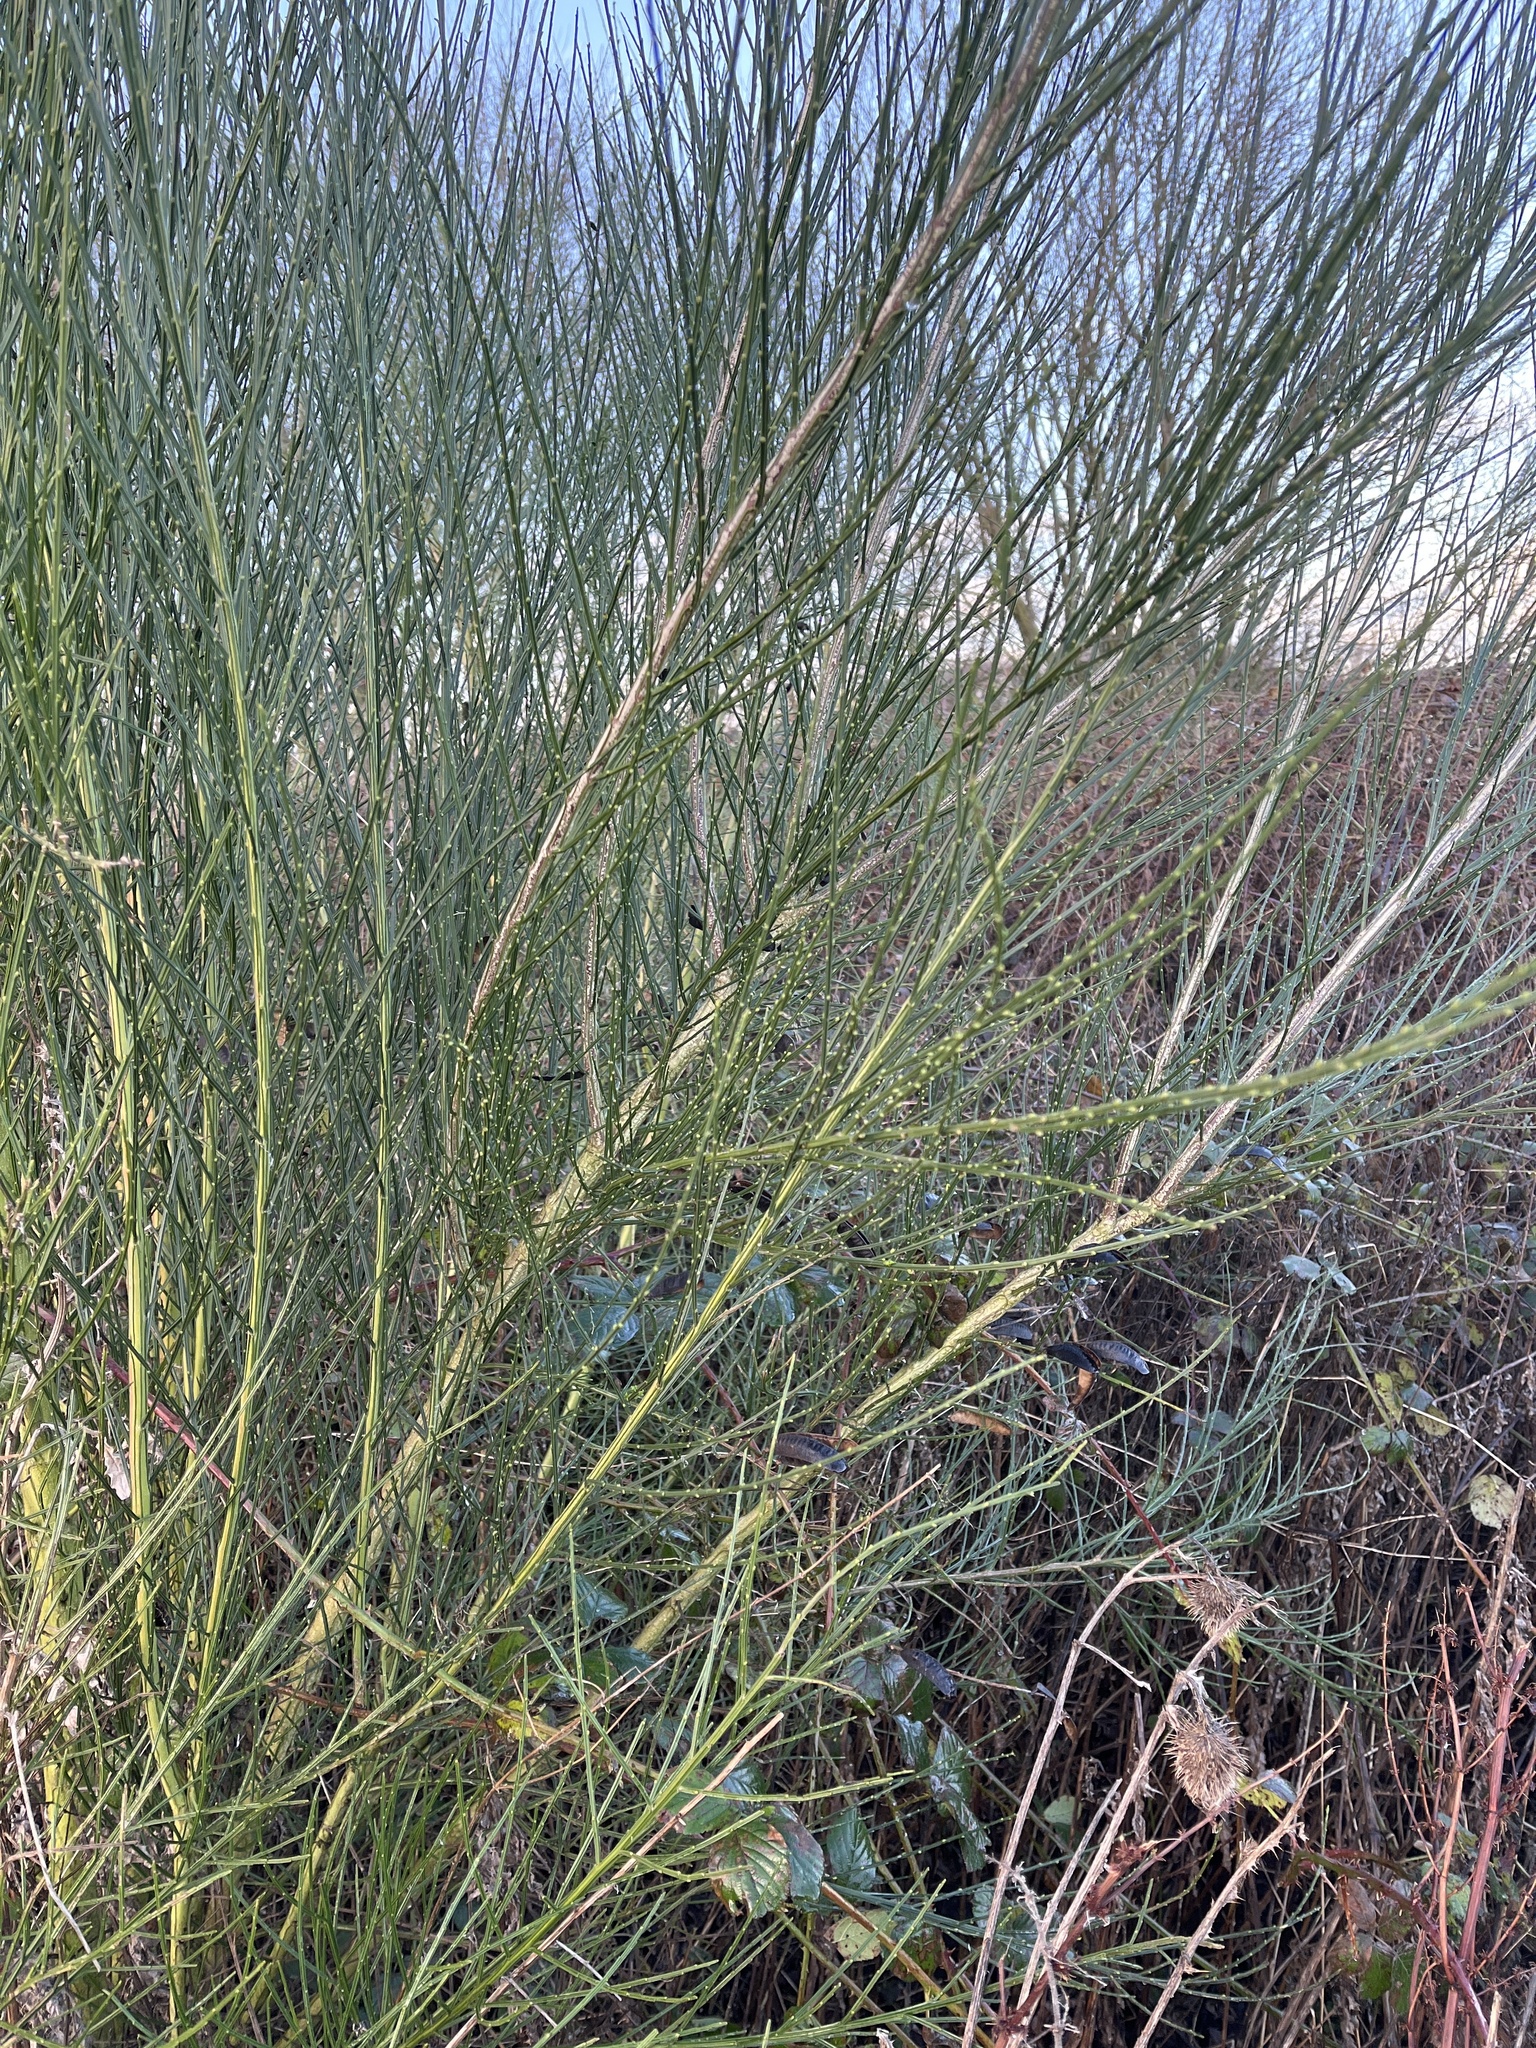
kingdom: Plantae
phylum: Tracheophyta
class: Magnoliopsida
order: Fabales
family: Fabaceae
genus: Cytisus
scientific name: Cytisus scoparius
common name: Scotch broom
